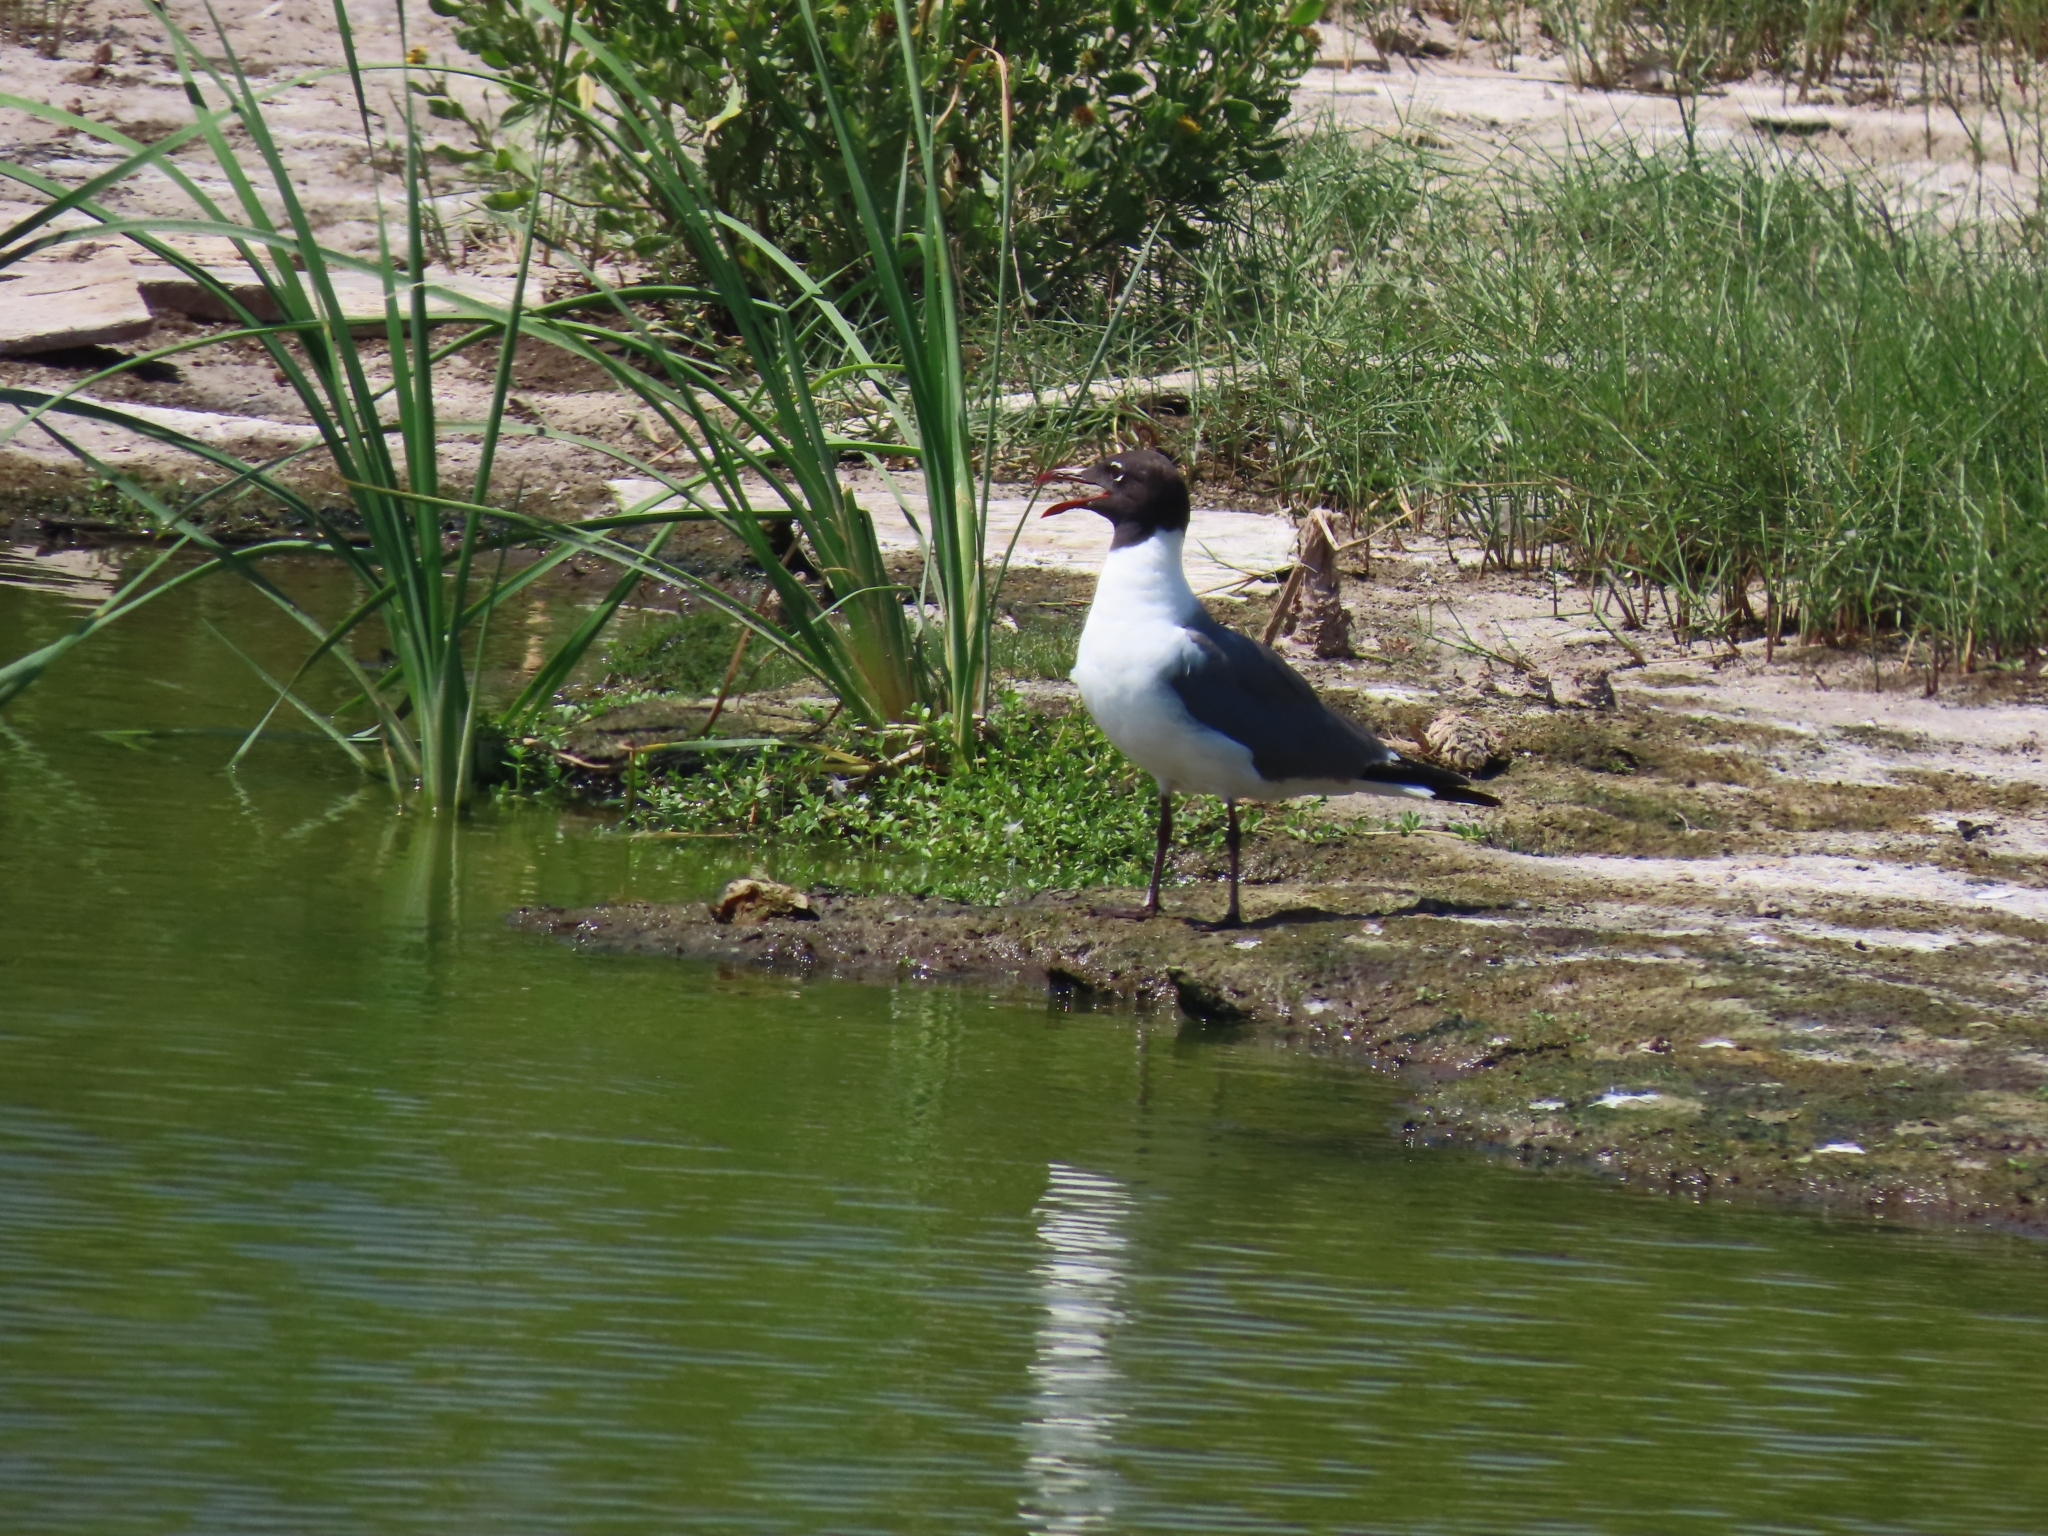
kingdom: Animalia
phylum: Chordata
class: Aves
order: Charadriiformes
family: Laridae
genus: Leucophaeus
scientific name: Leucophaeus atricilla
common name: Laughing gull
